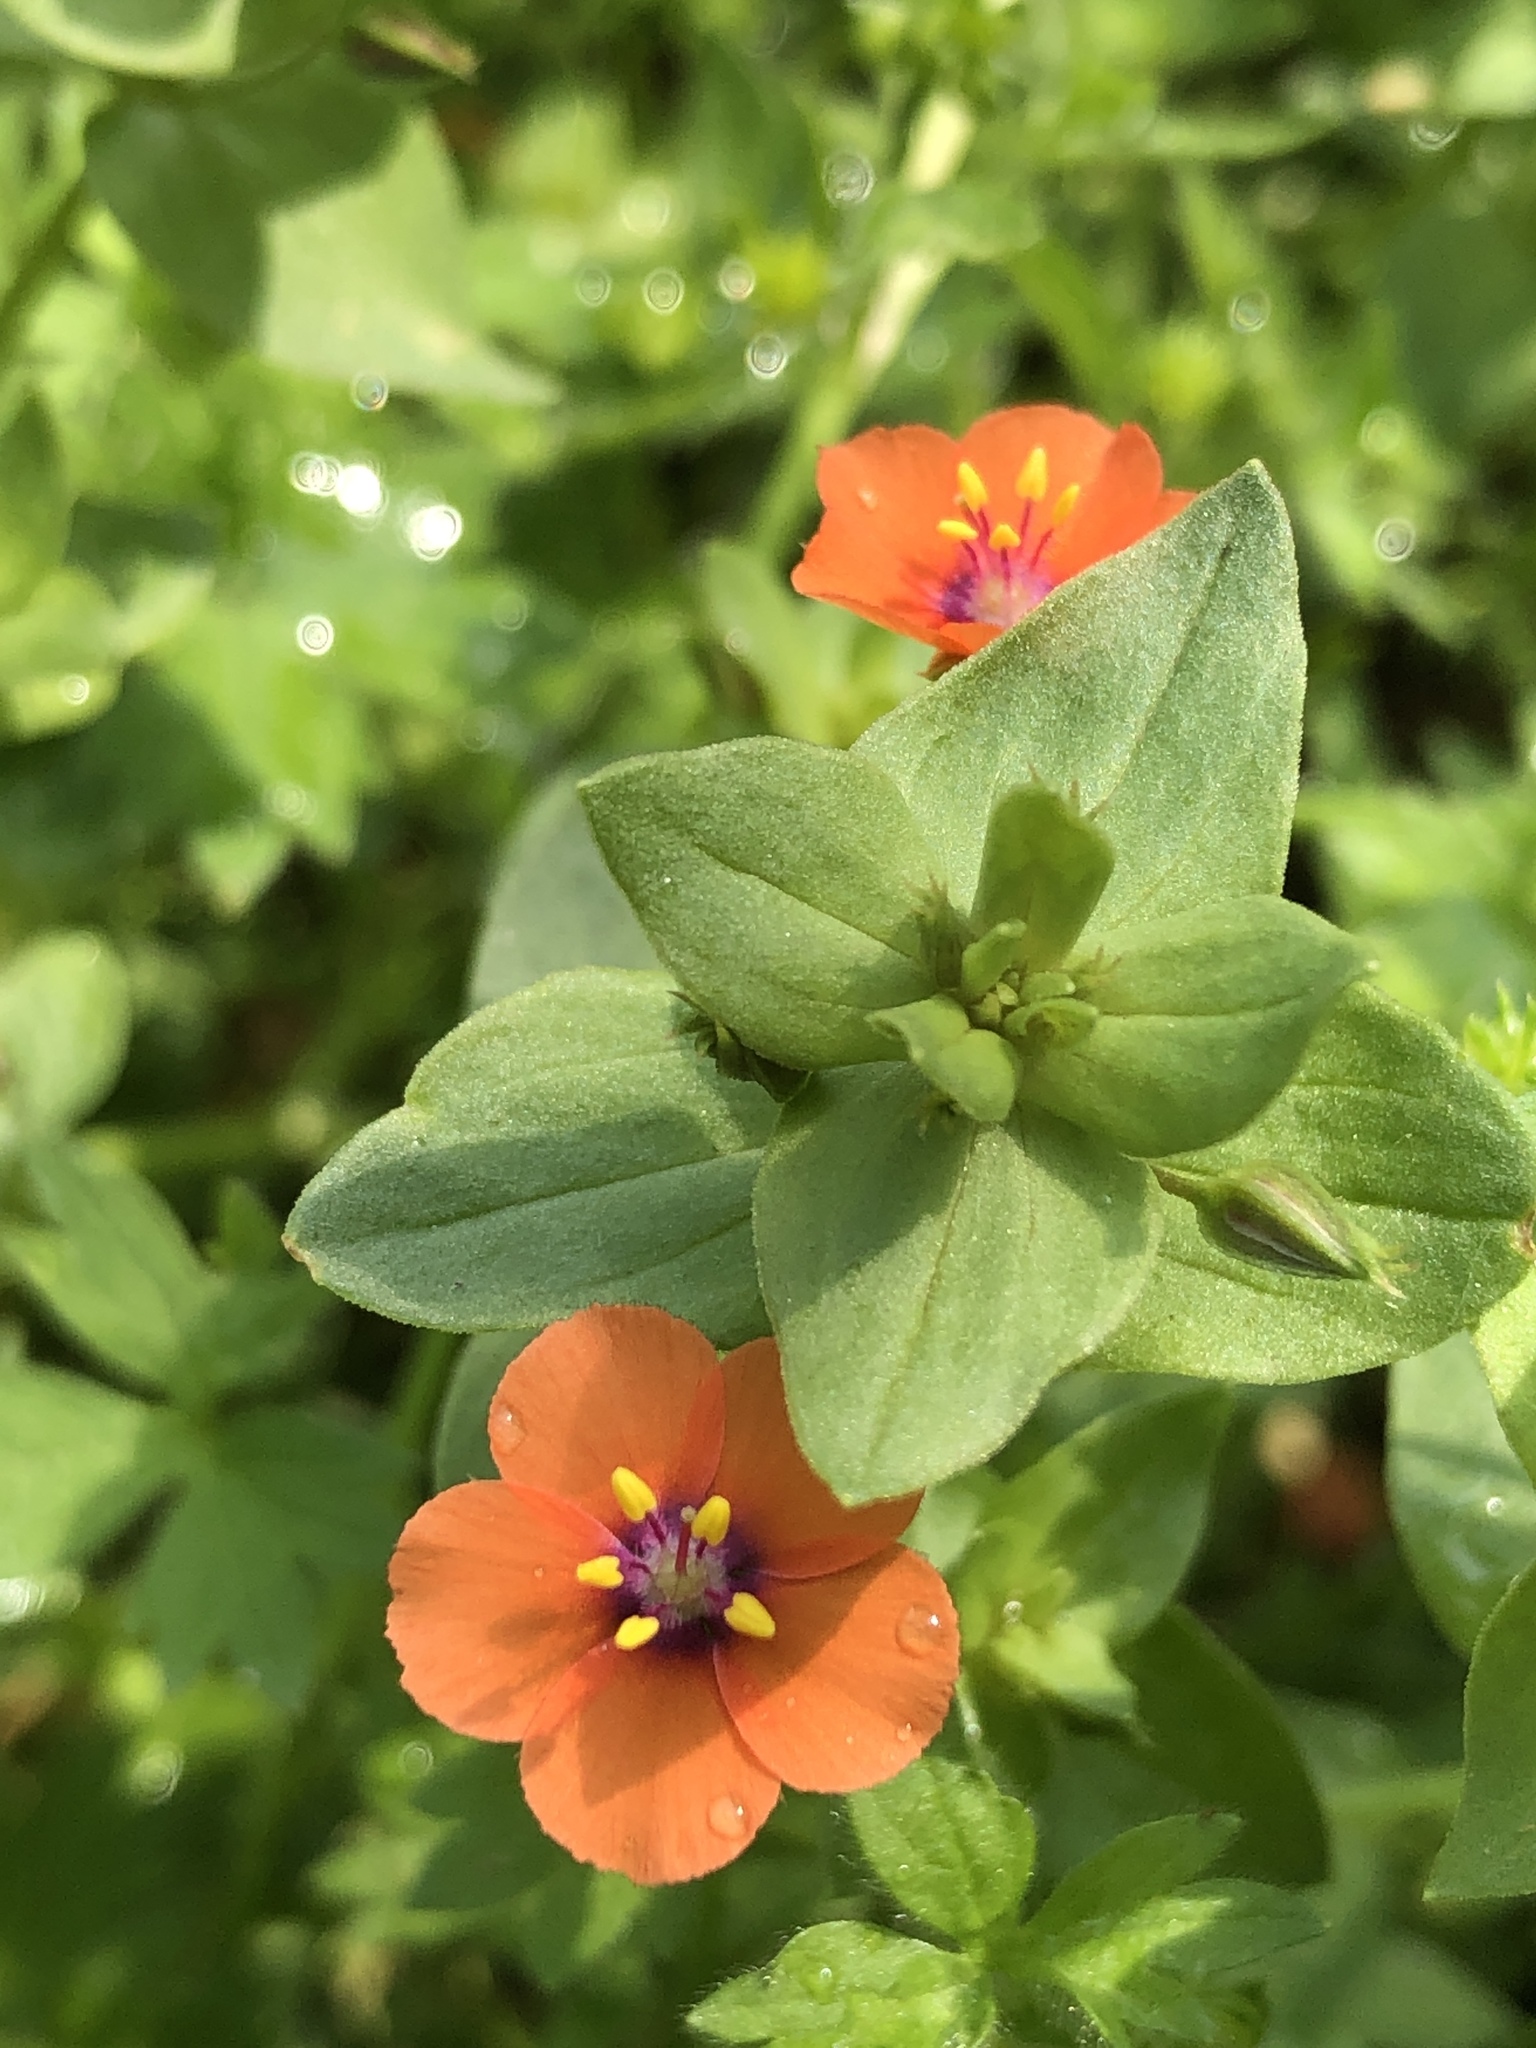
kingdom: Plantae
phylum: Tracheophyta
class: Magnoliopsida
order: Ericales
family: Primulaceae
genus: Lysimachia
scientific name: Lysimachia arvensis
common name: Scarlet pimpernel
